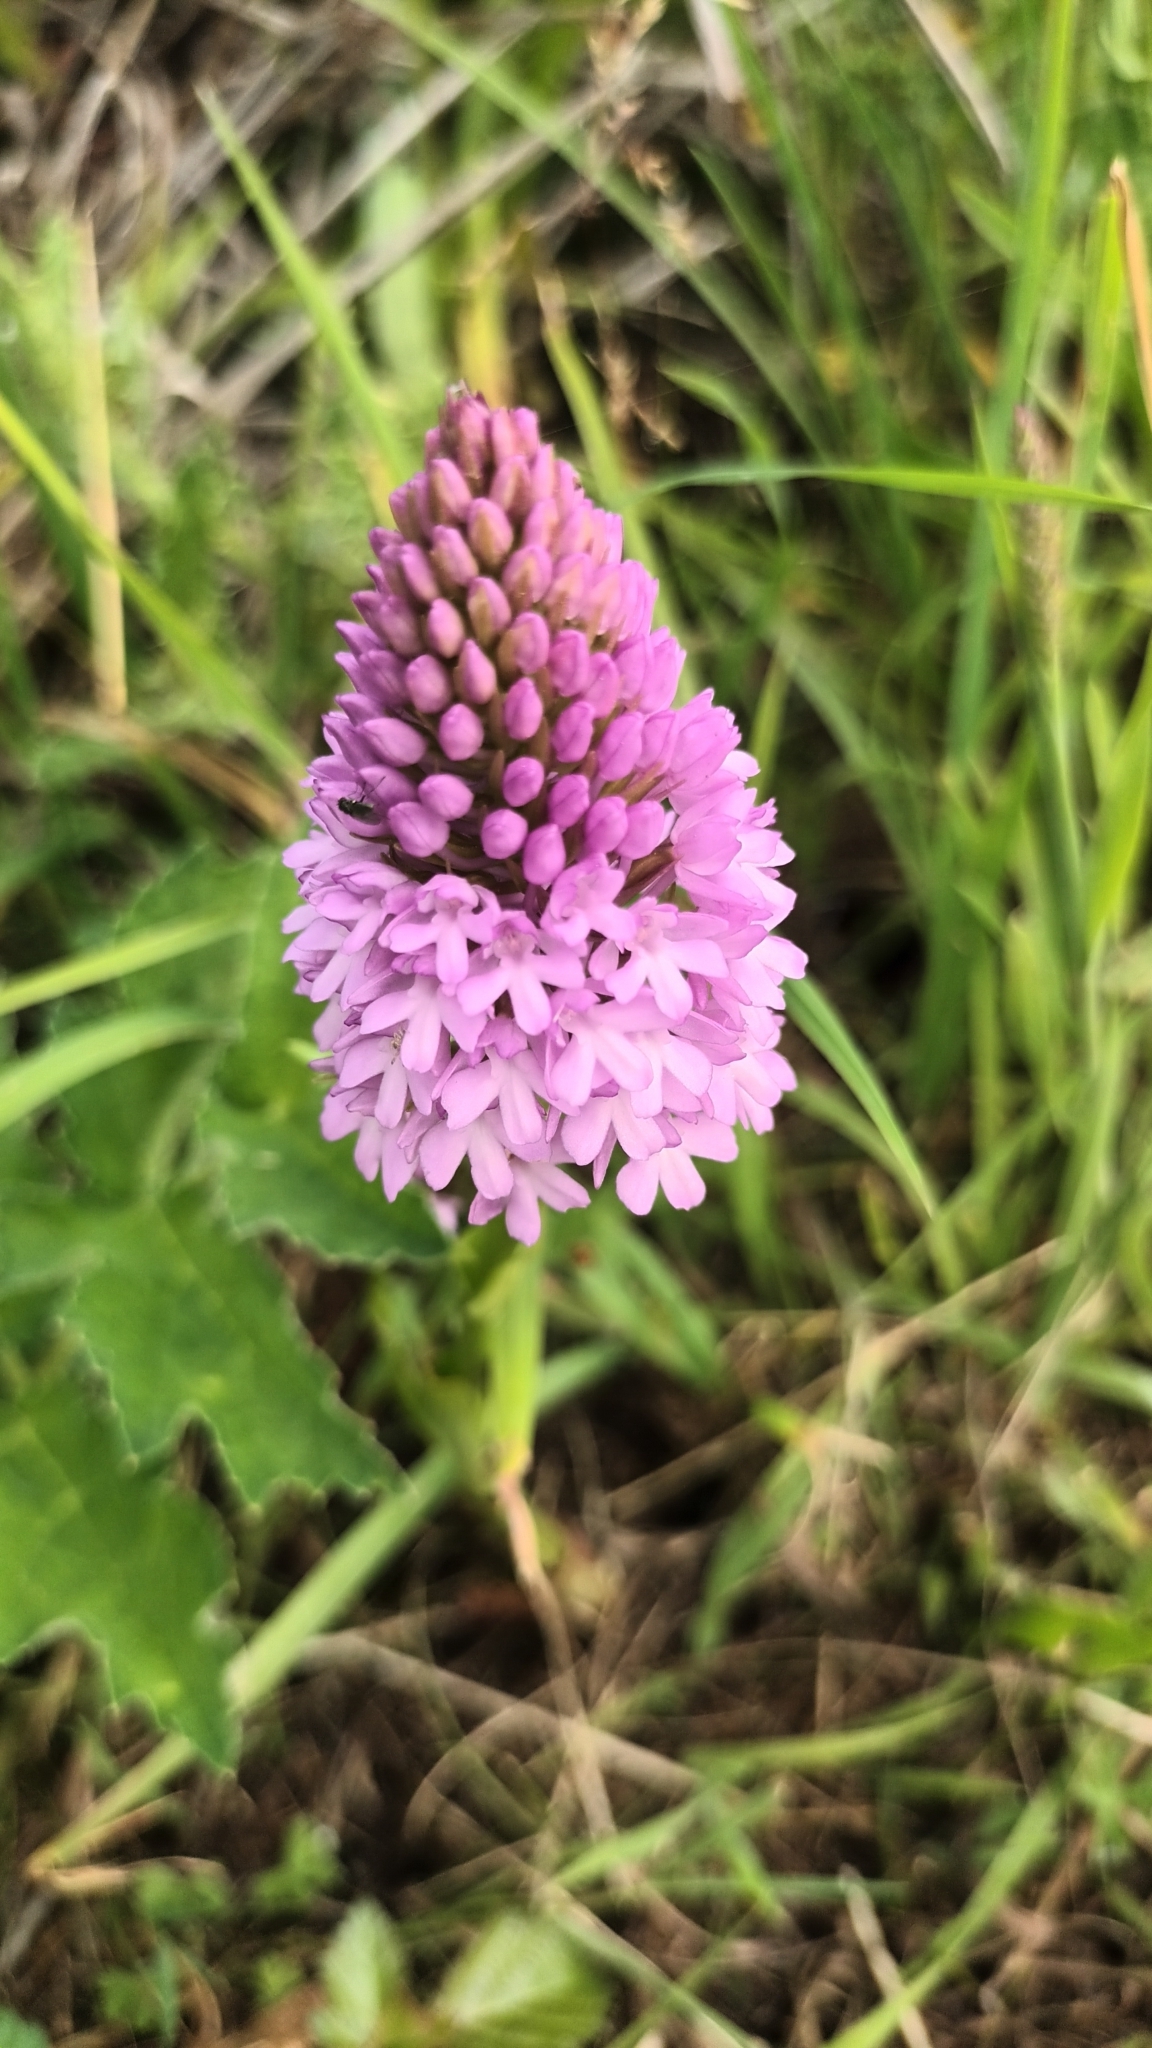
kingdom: Plantae
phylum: Tracheophyta
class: Liliopsida
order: Asparagales
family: Orchidaceae
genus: Anacamptis
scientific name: Anacamptis pyramidalis
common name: Pyramidal orchid
